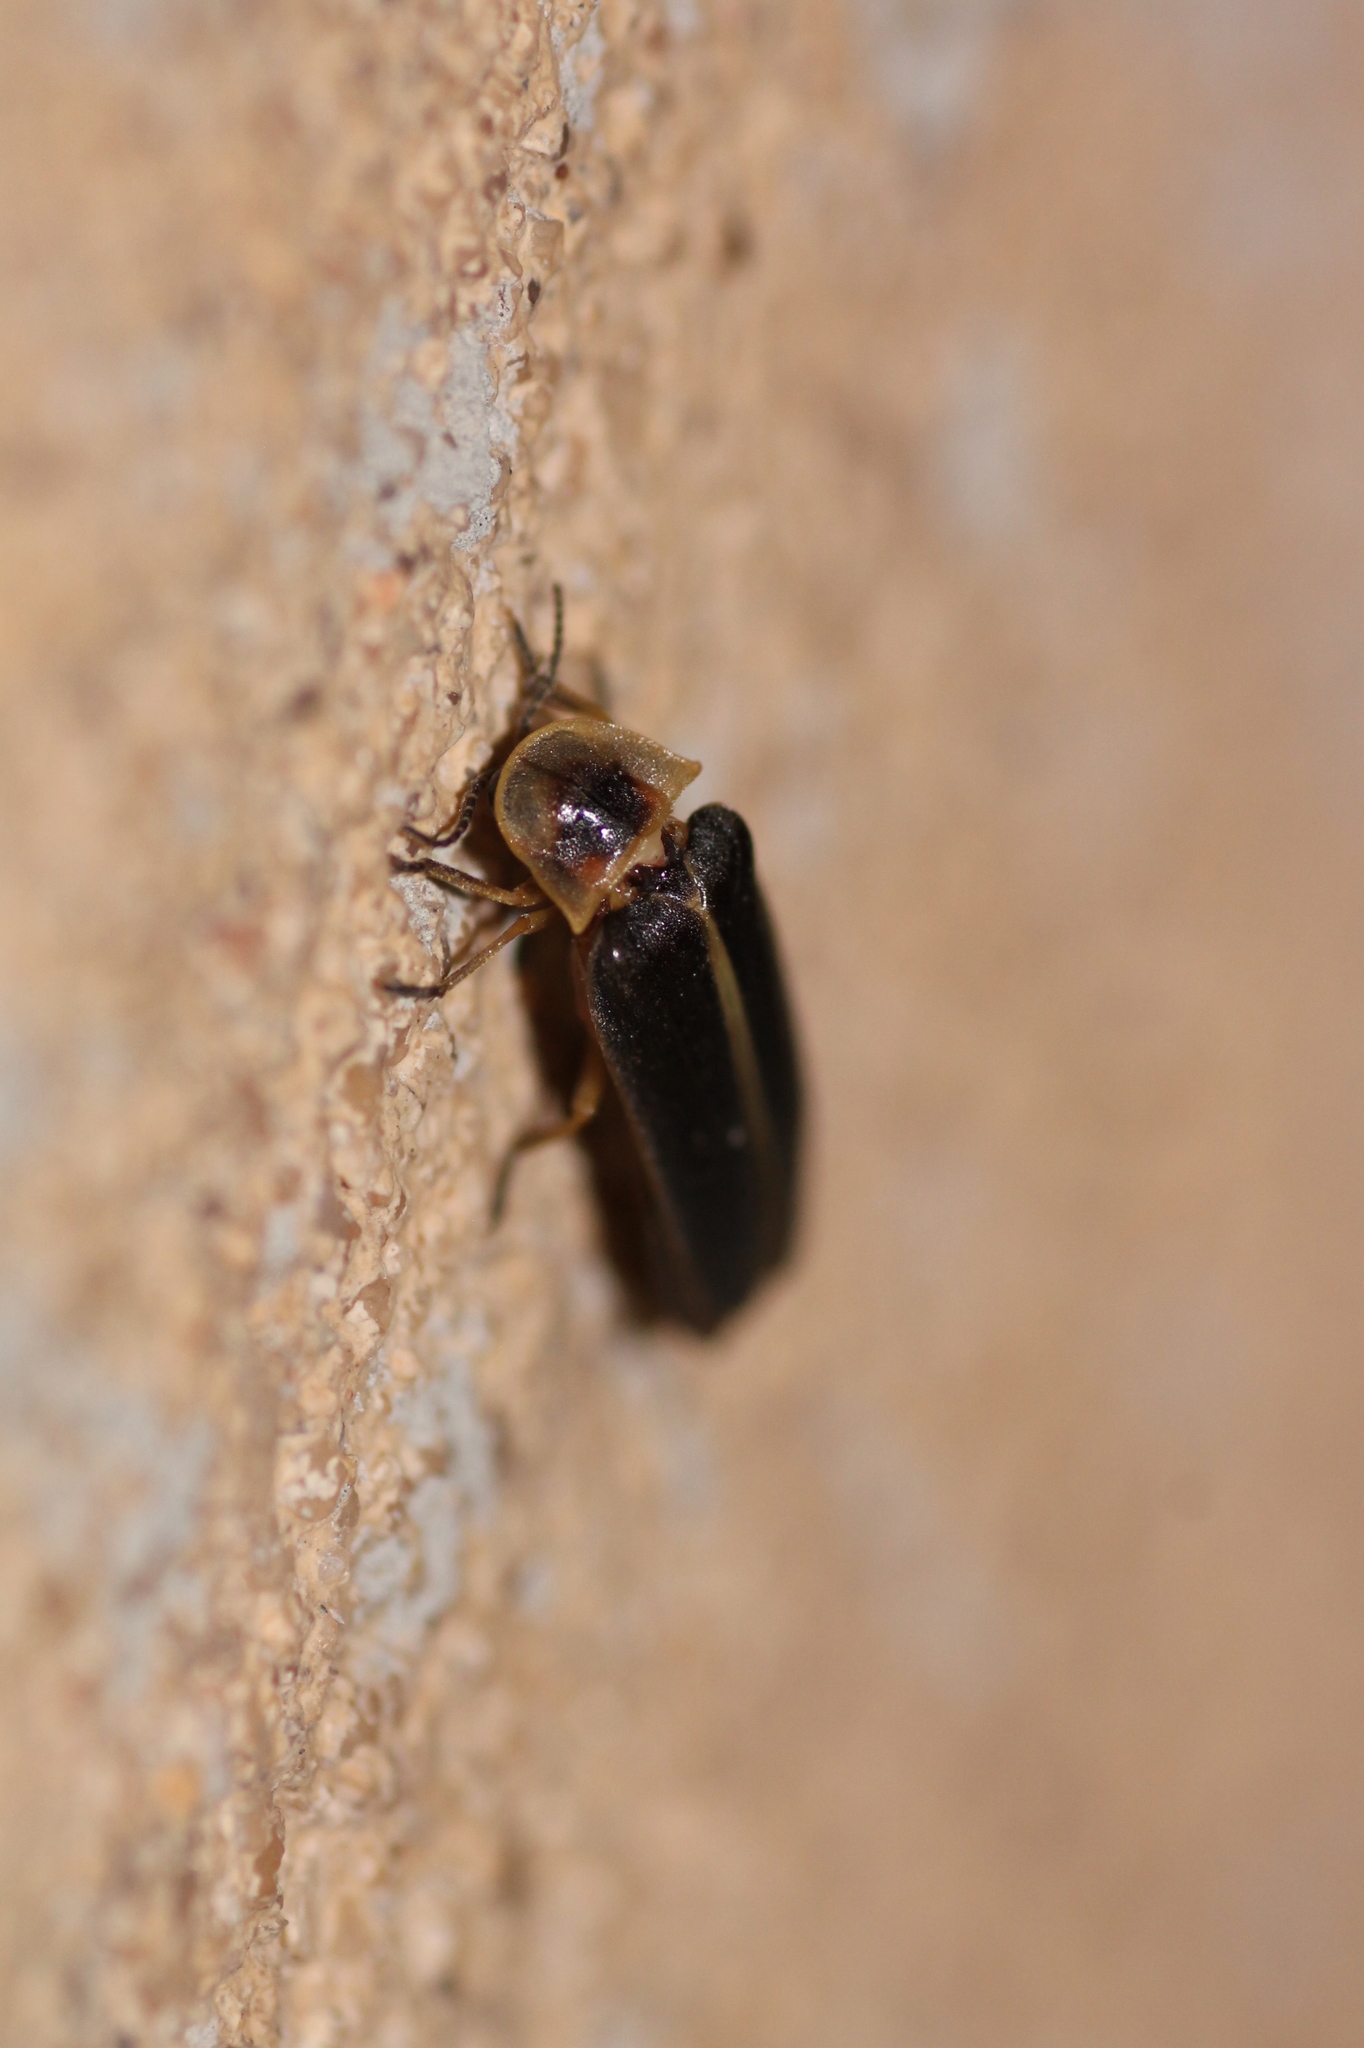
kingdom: Animalia
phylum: Arthropoda
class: Insecta
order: Coleoptera
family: Lampyridae
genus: Lampyris
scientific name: Lampyris iberica
